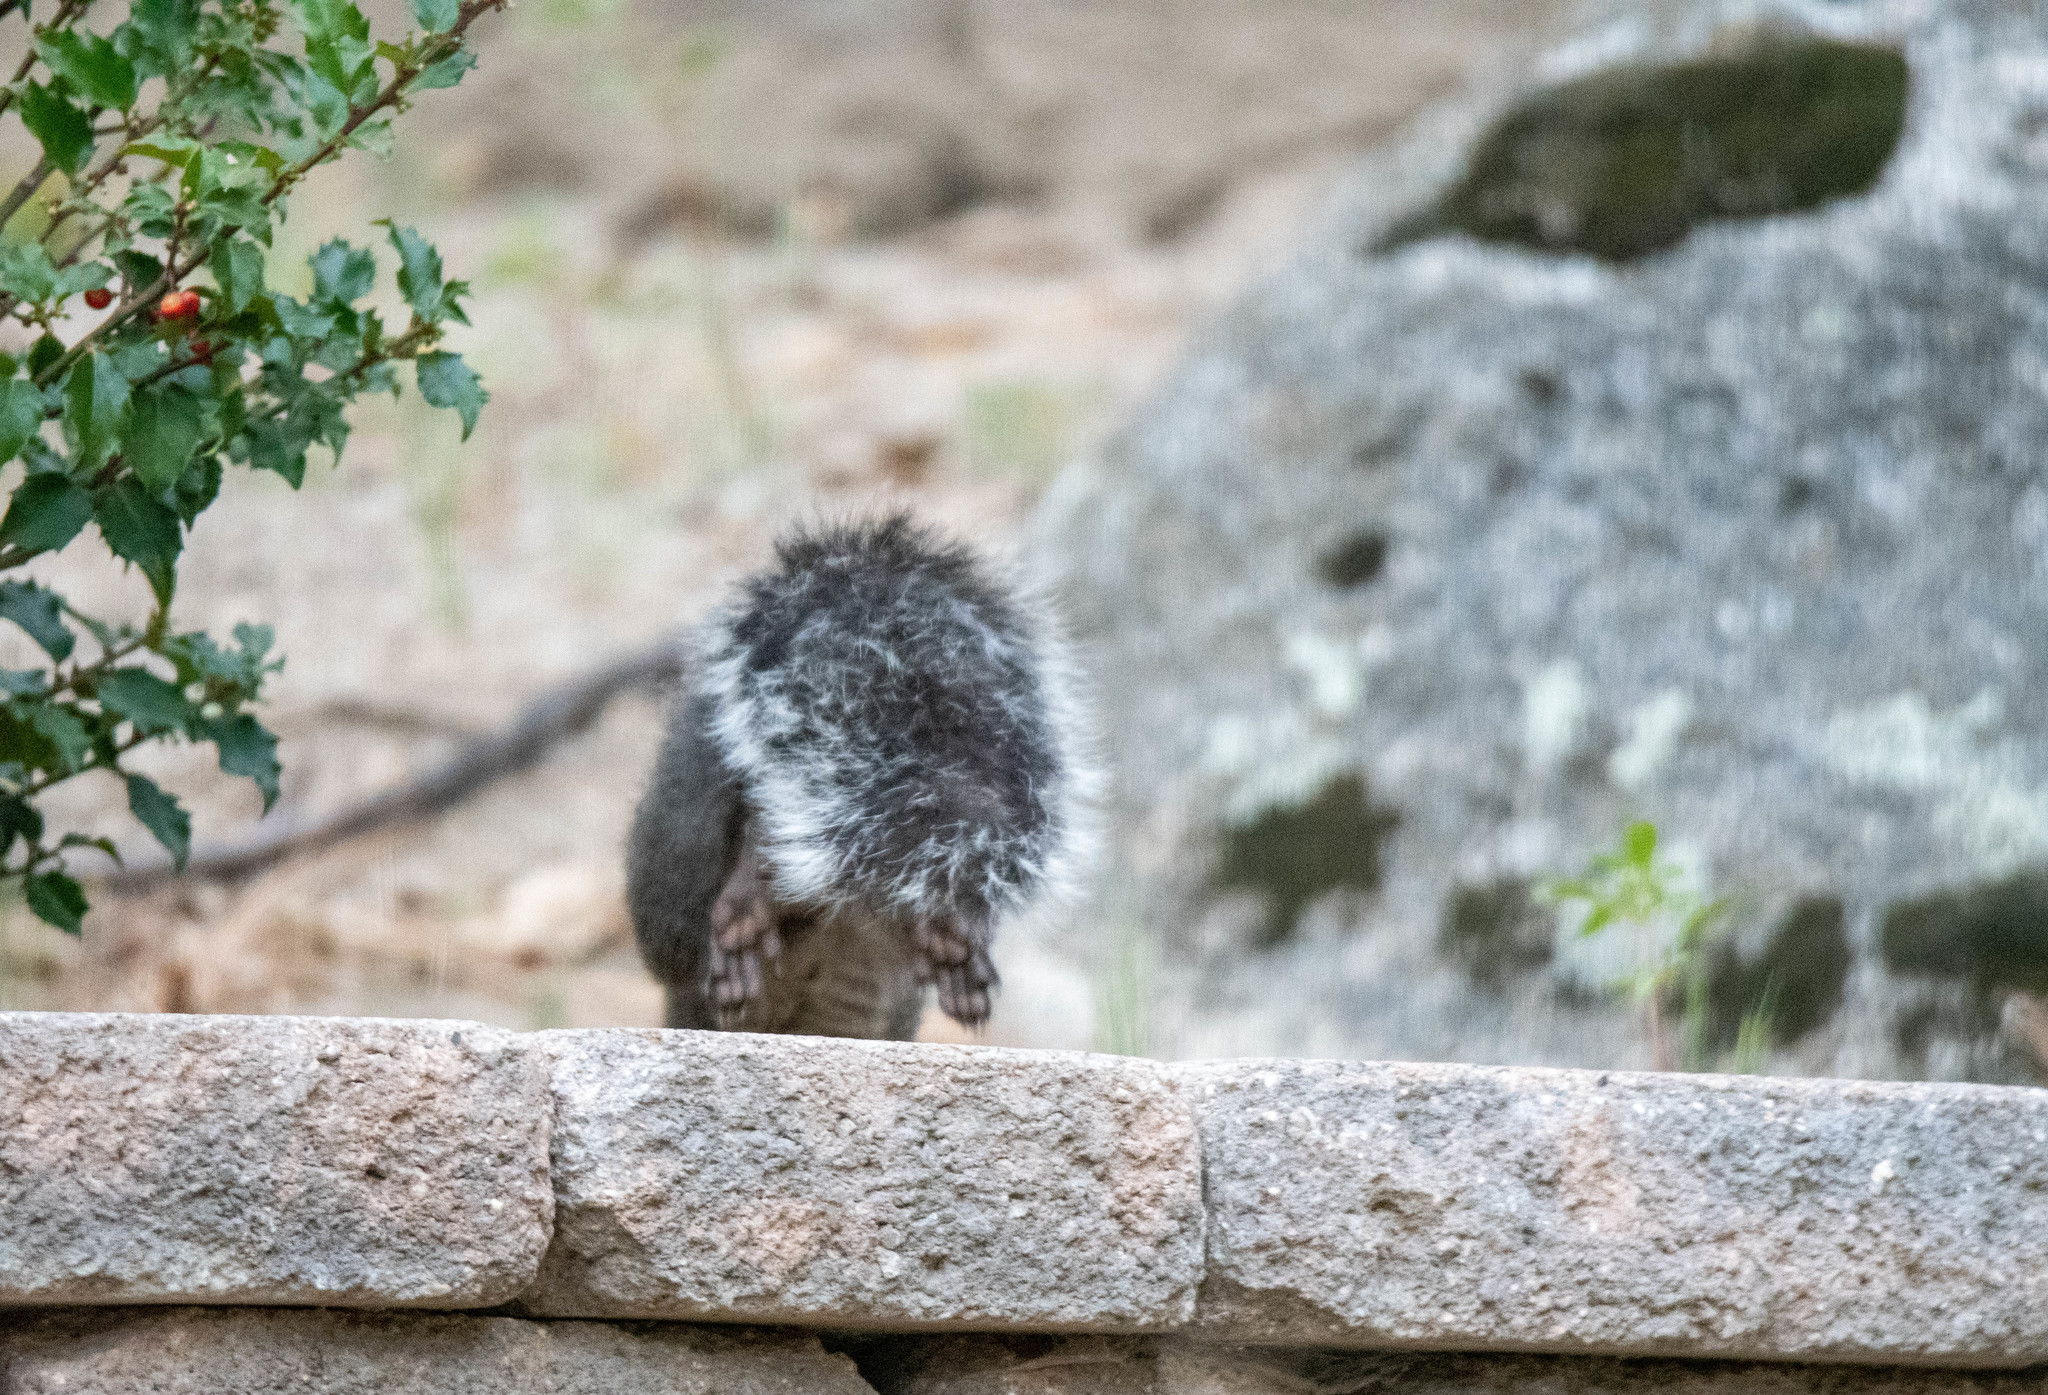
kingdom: Animalia
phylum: Chordata
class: Mammalia
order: Rodentia
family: Sciuridae
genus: Sciurus
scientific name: Sciurus griseus
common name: Western gray squirrel
